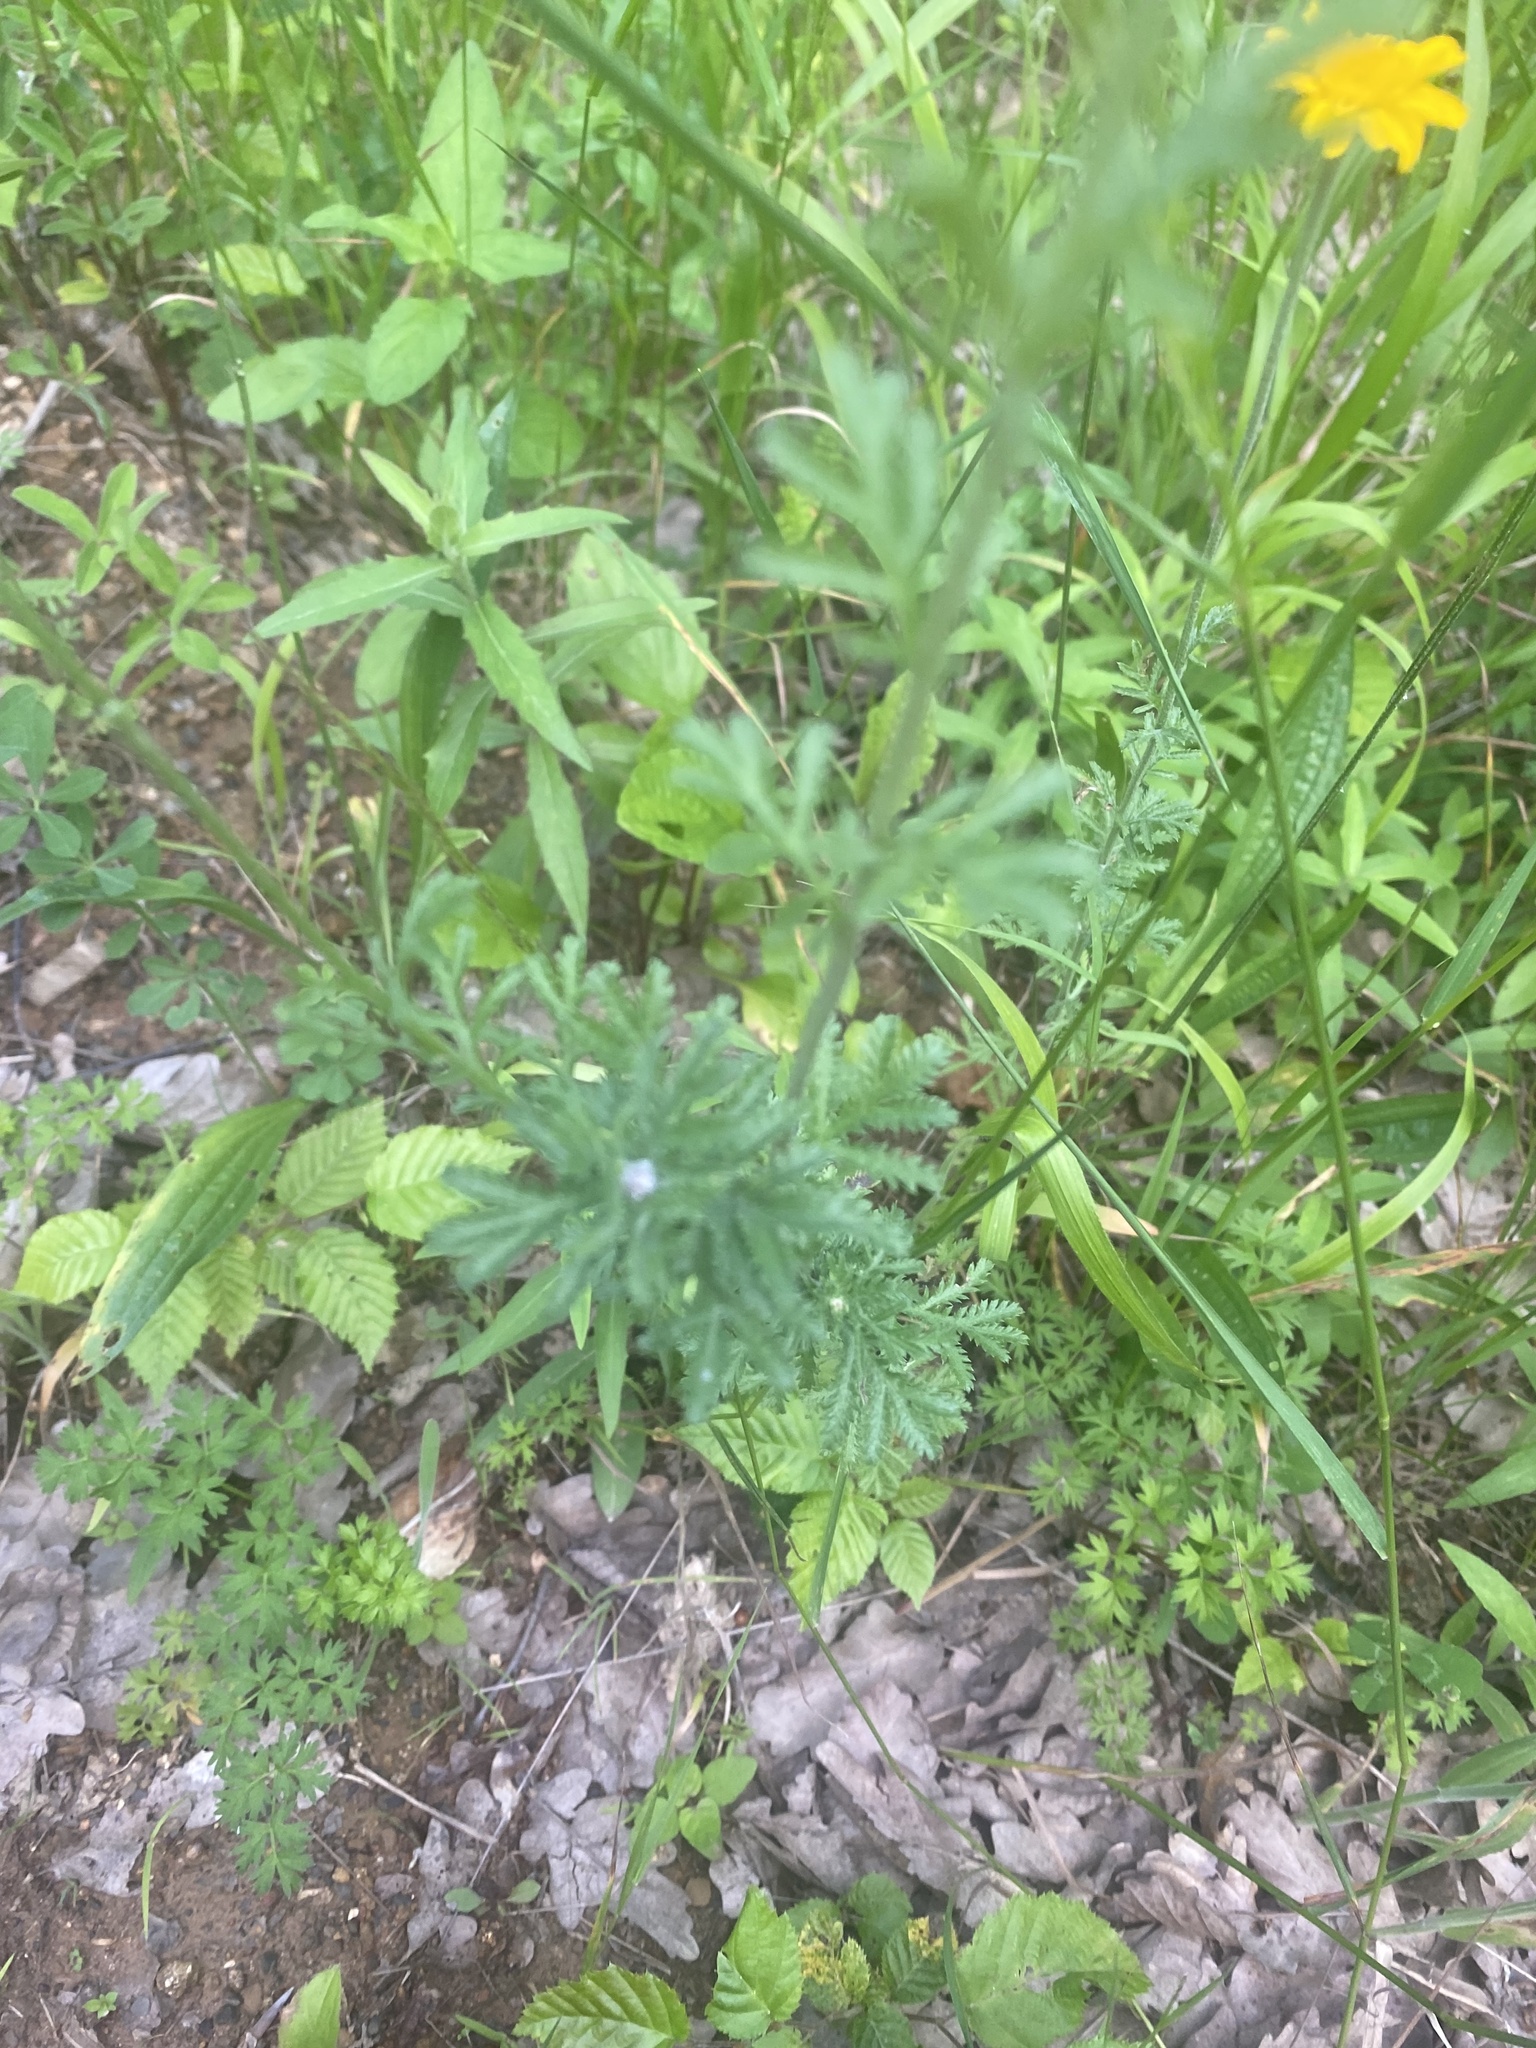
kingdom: Plantae
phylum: Tracheophyta
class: Magnoliopsida
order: Asterales
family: Asteraceae
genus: Cota
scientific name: Cota tinctoria
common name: Golden chamomile
